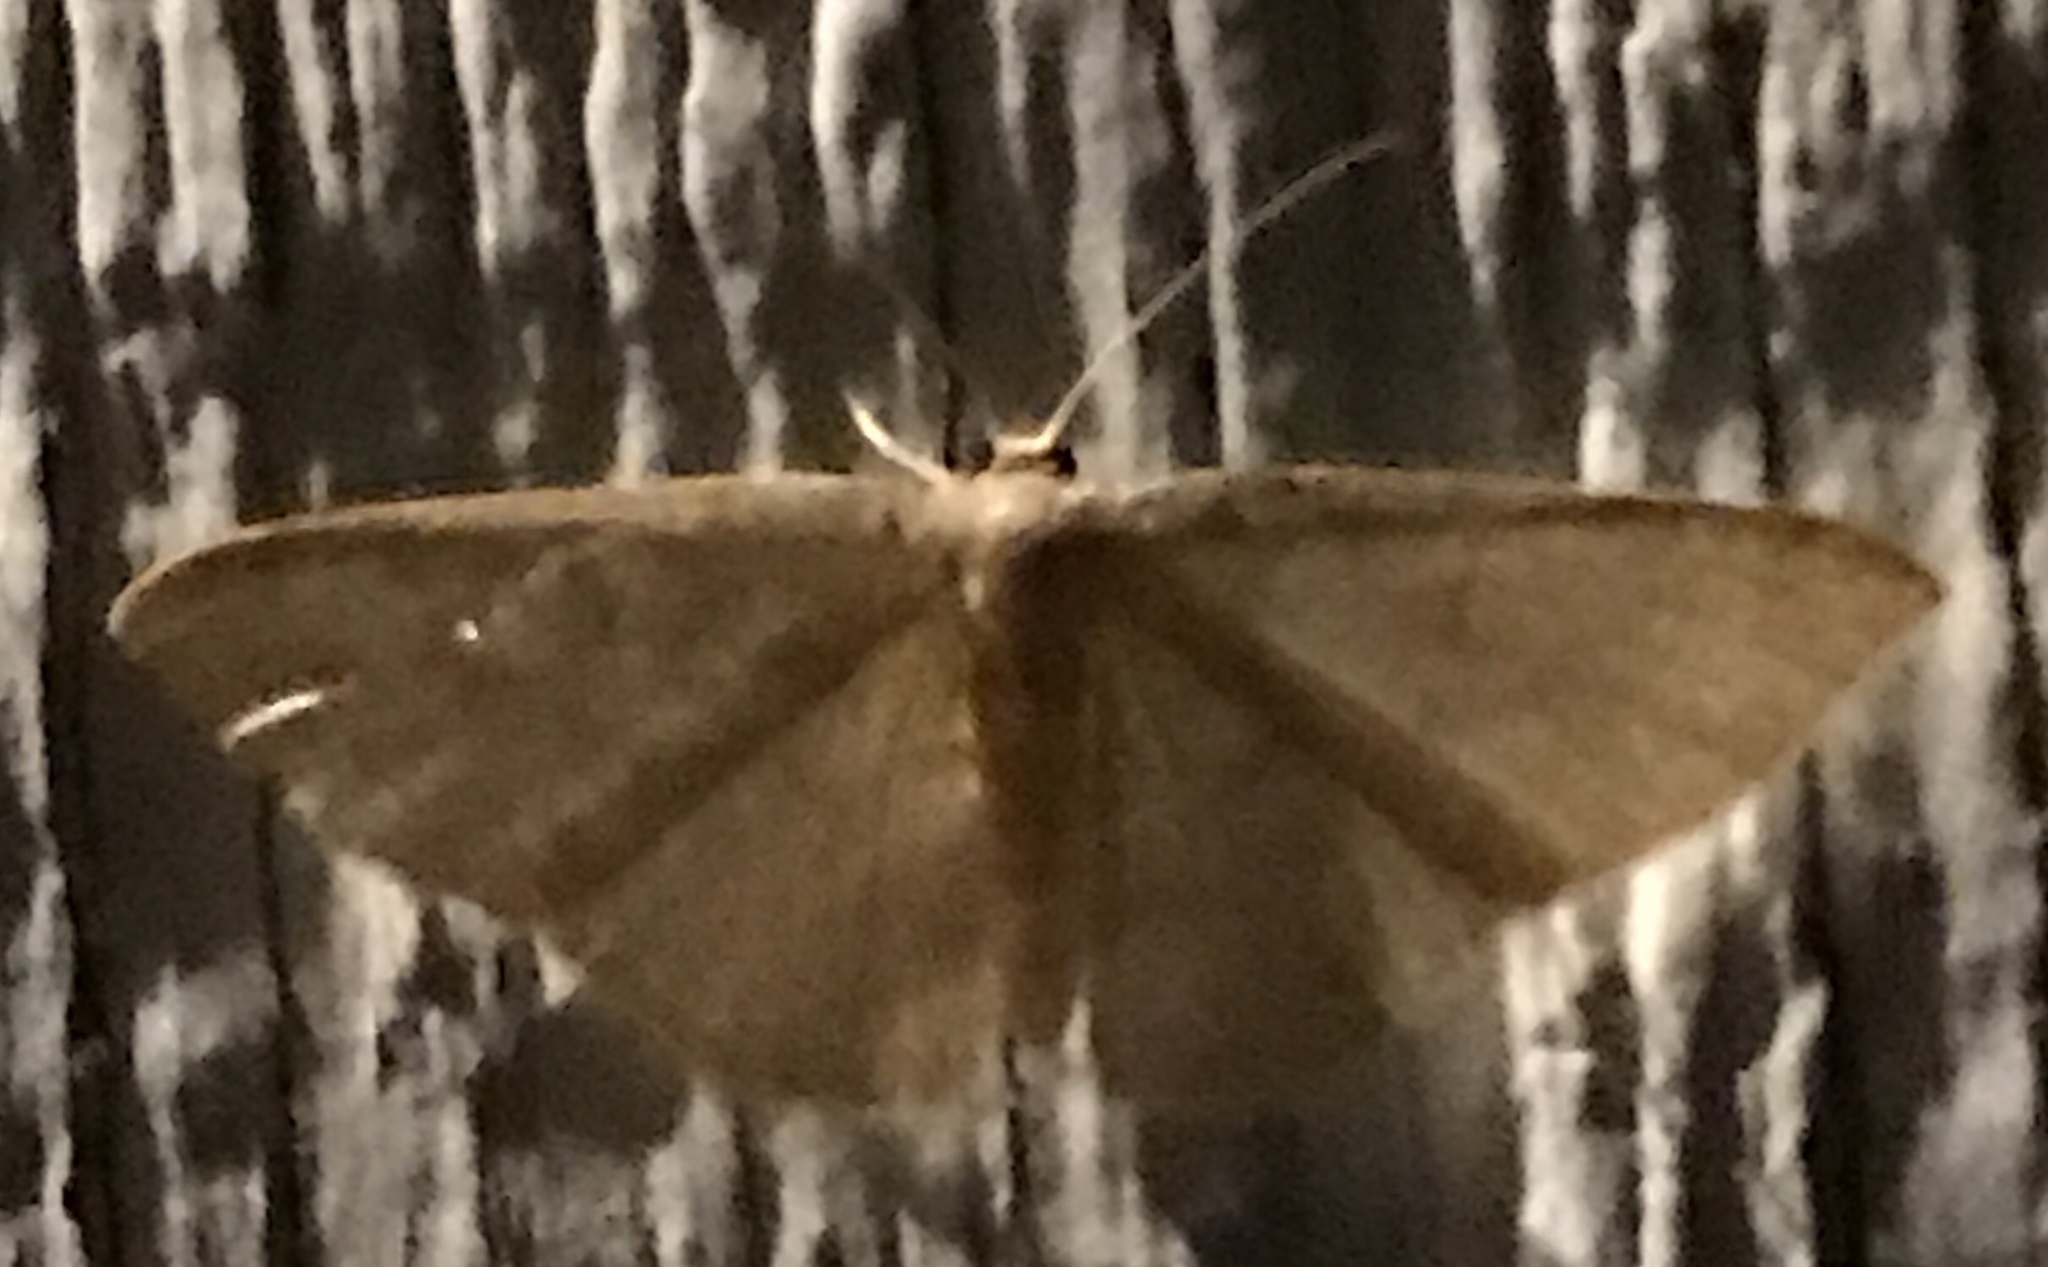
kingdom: Animalia
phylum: Arthropoda
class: Insecta
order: Lepidoptera
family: Geometridae
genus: Pleuroprucha
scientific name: Pleuroprucha insulsaria
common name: Common tan wave
